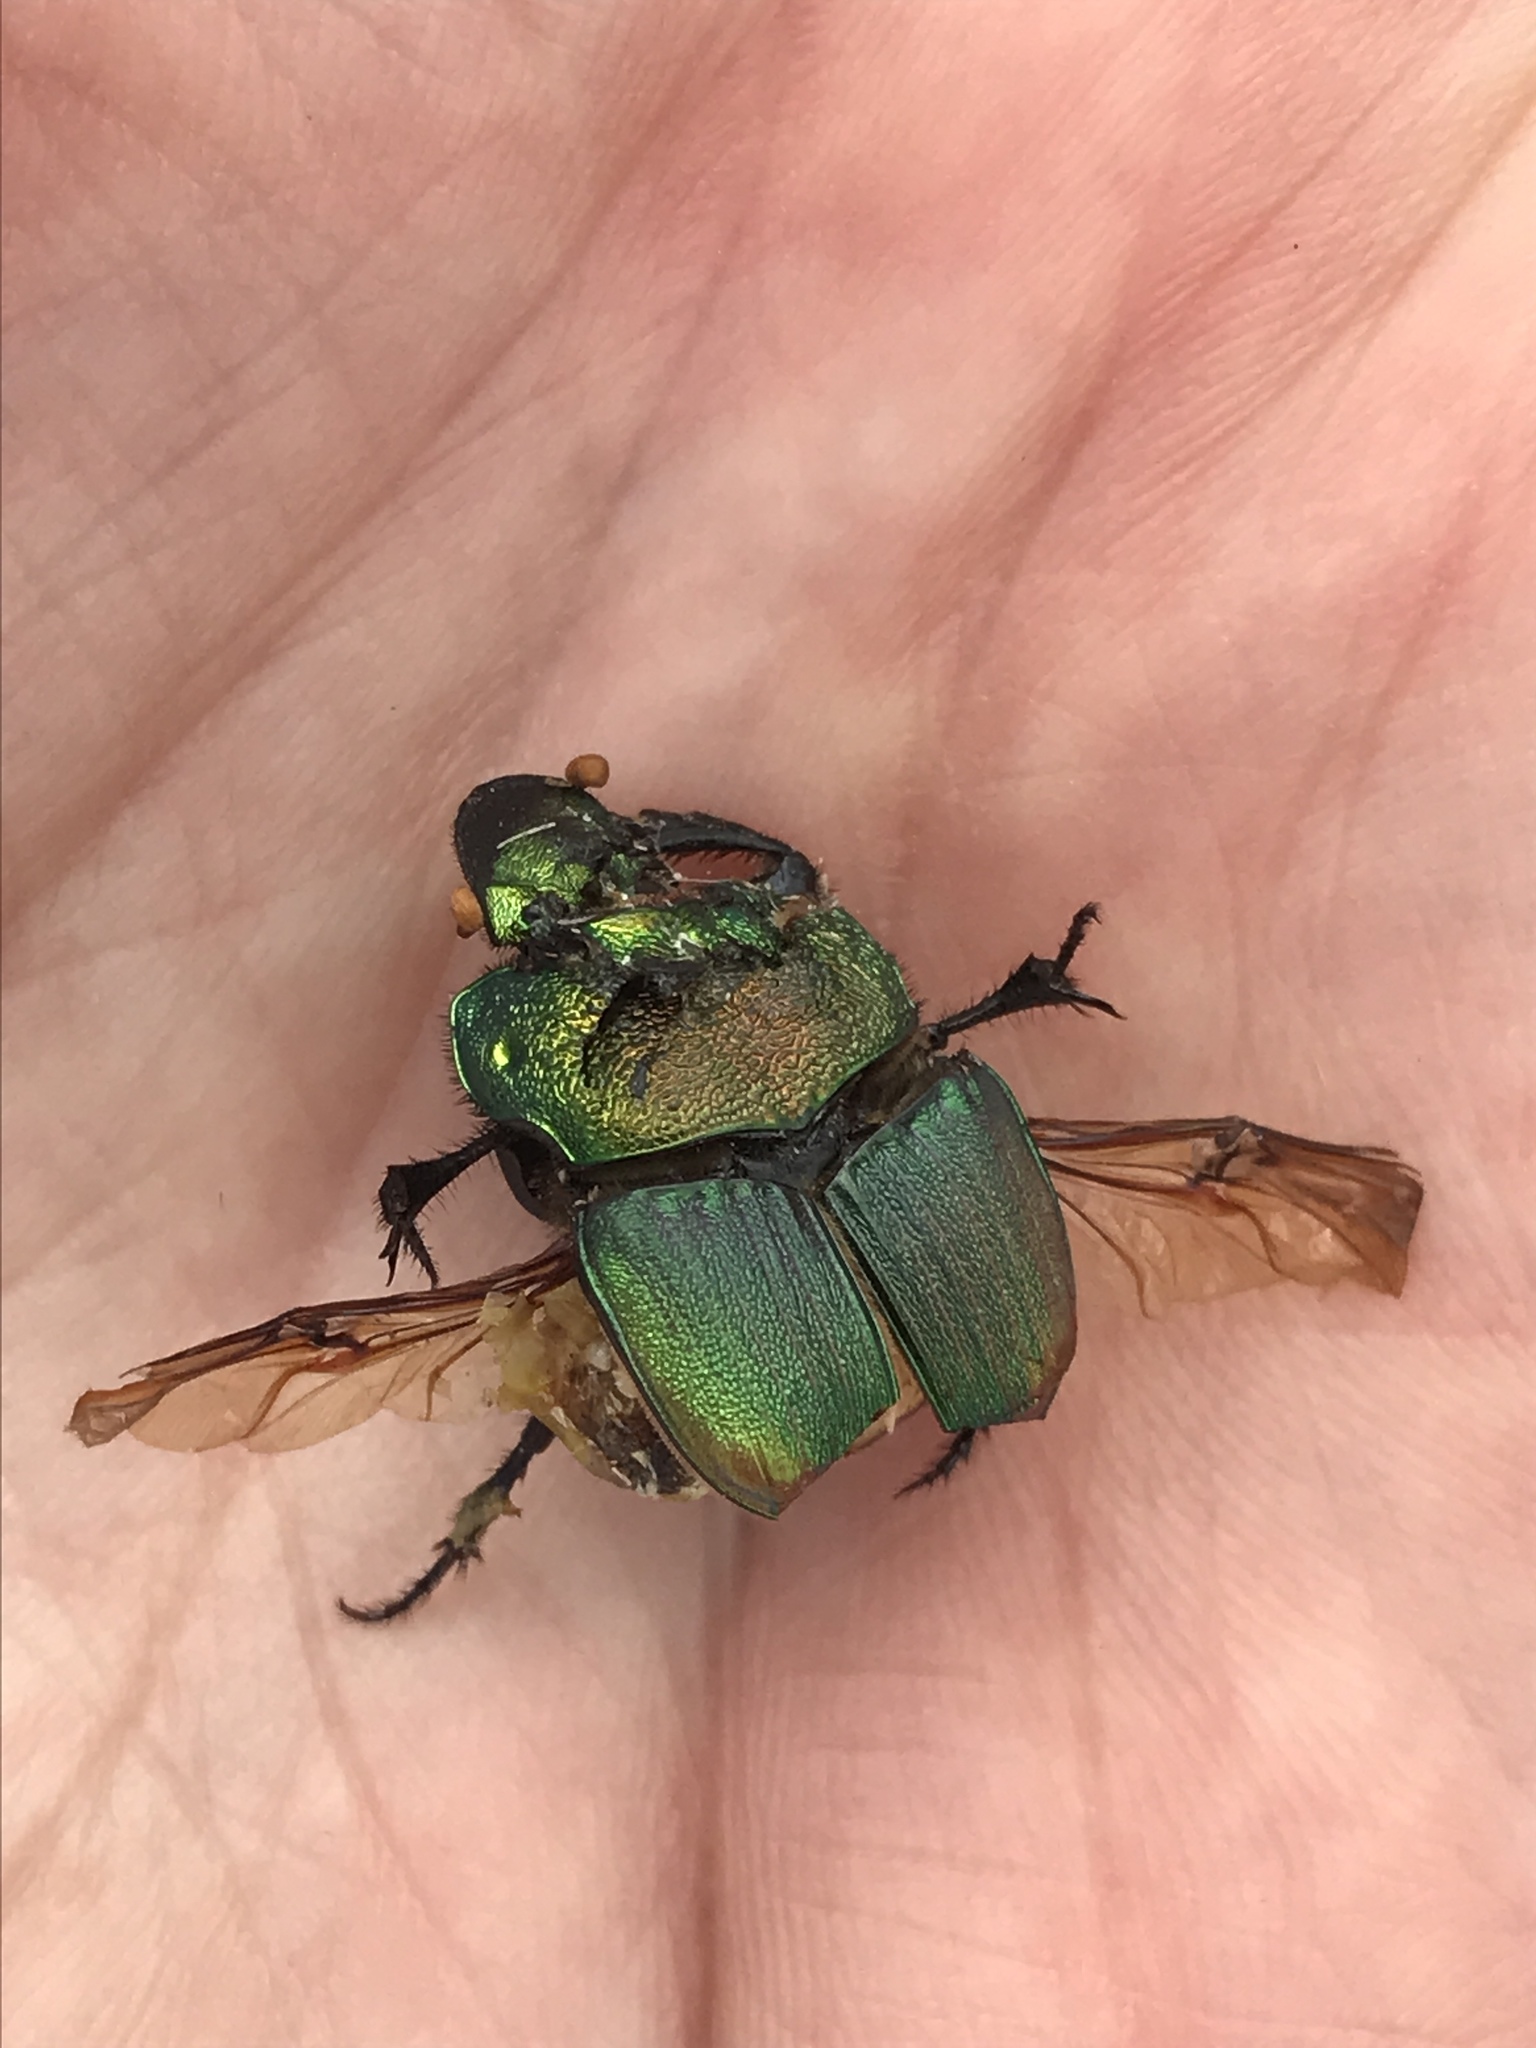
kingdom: Animalia
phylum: Arthropoda
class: Insecta
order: Coleoptera
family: Scarabaeidae
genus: Phanaeus
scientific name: Phanaeus vindex
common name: Rainbow scarab
